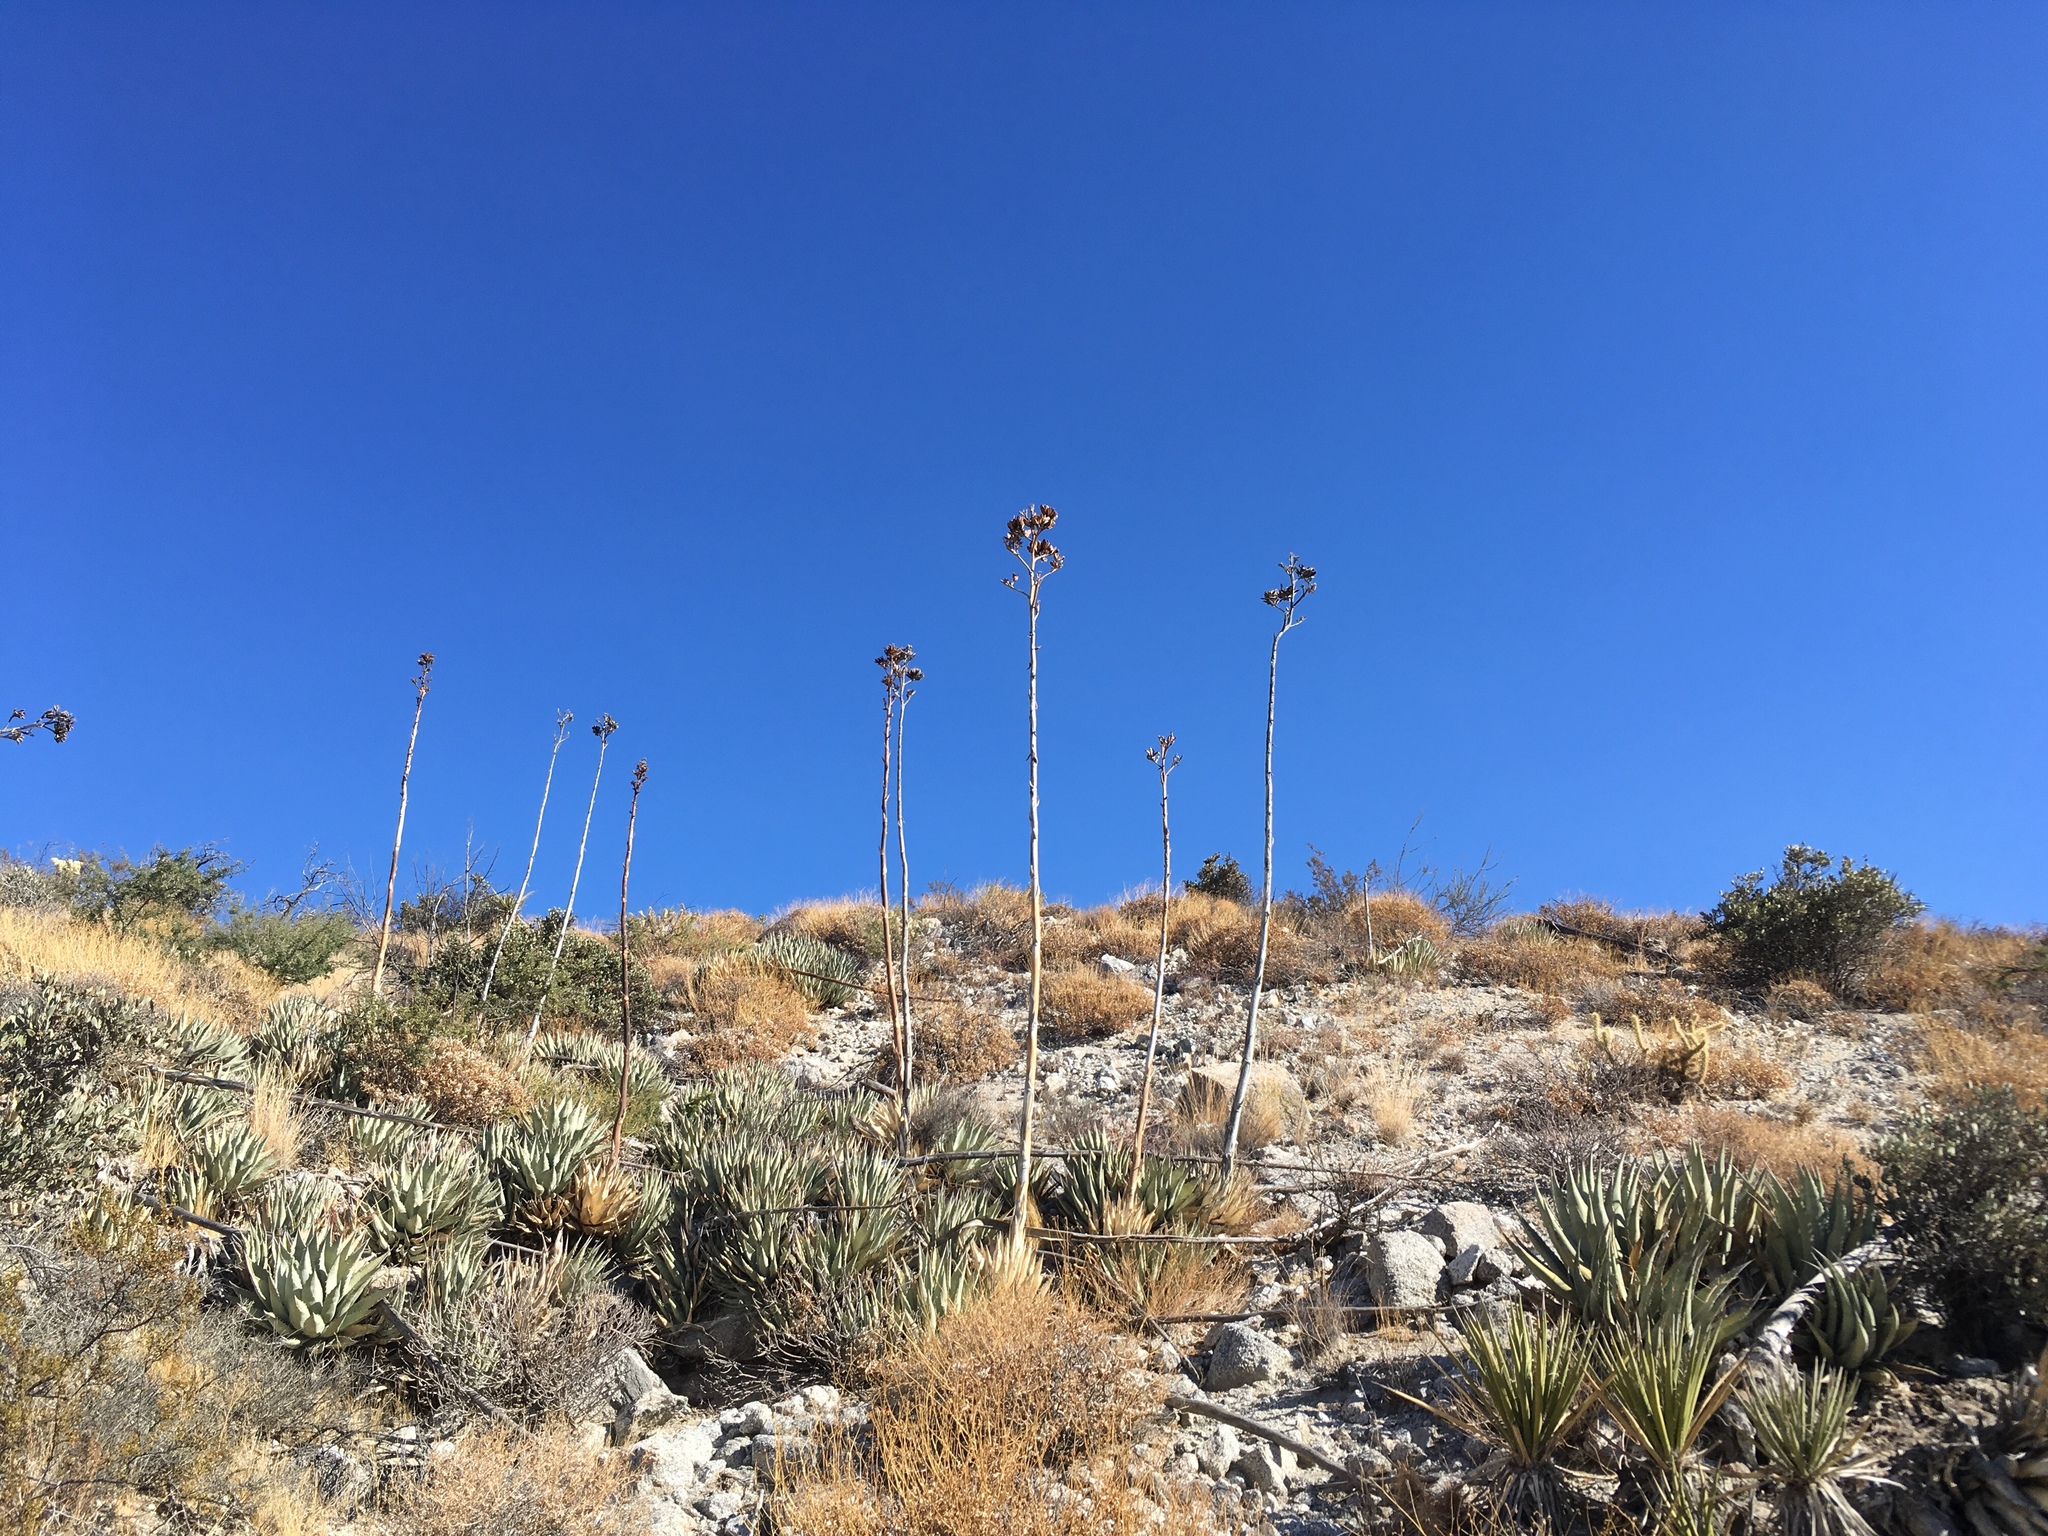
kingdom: Plantae
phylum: Tracheophyta
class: Liliopsida
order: Asparagales
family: Asparagaceae
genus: Agave
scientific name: Agave deserti
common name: Desert agave
